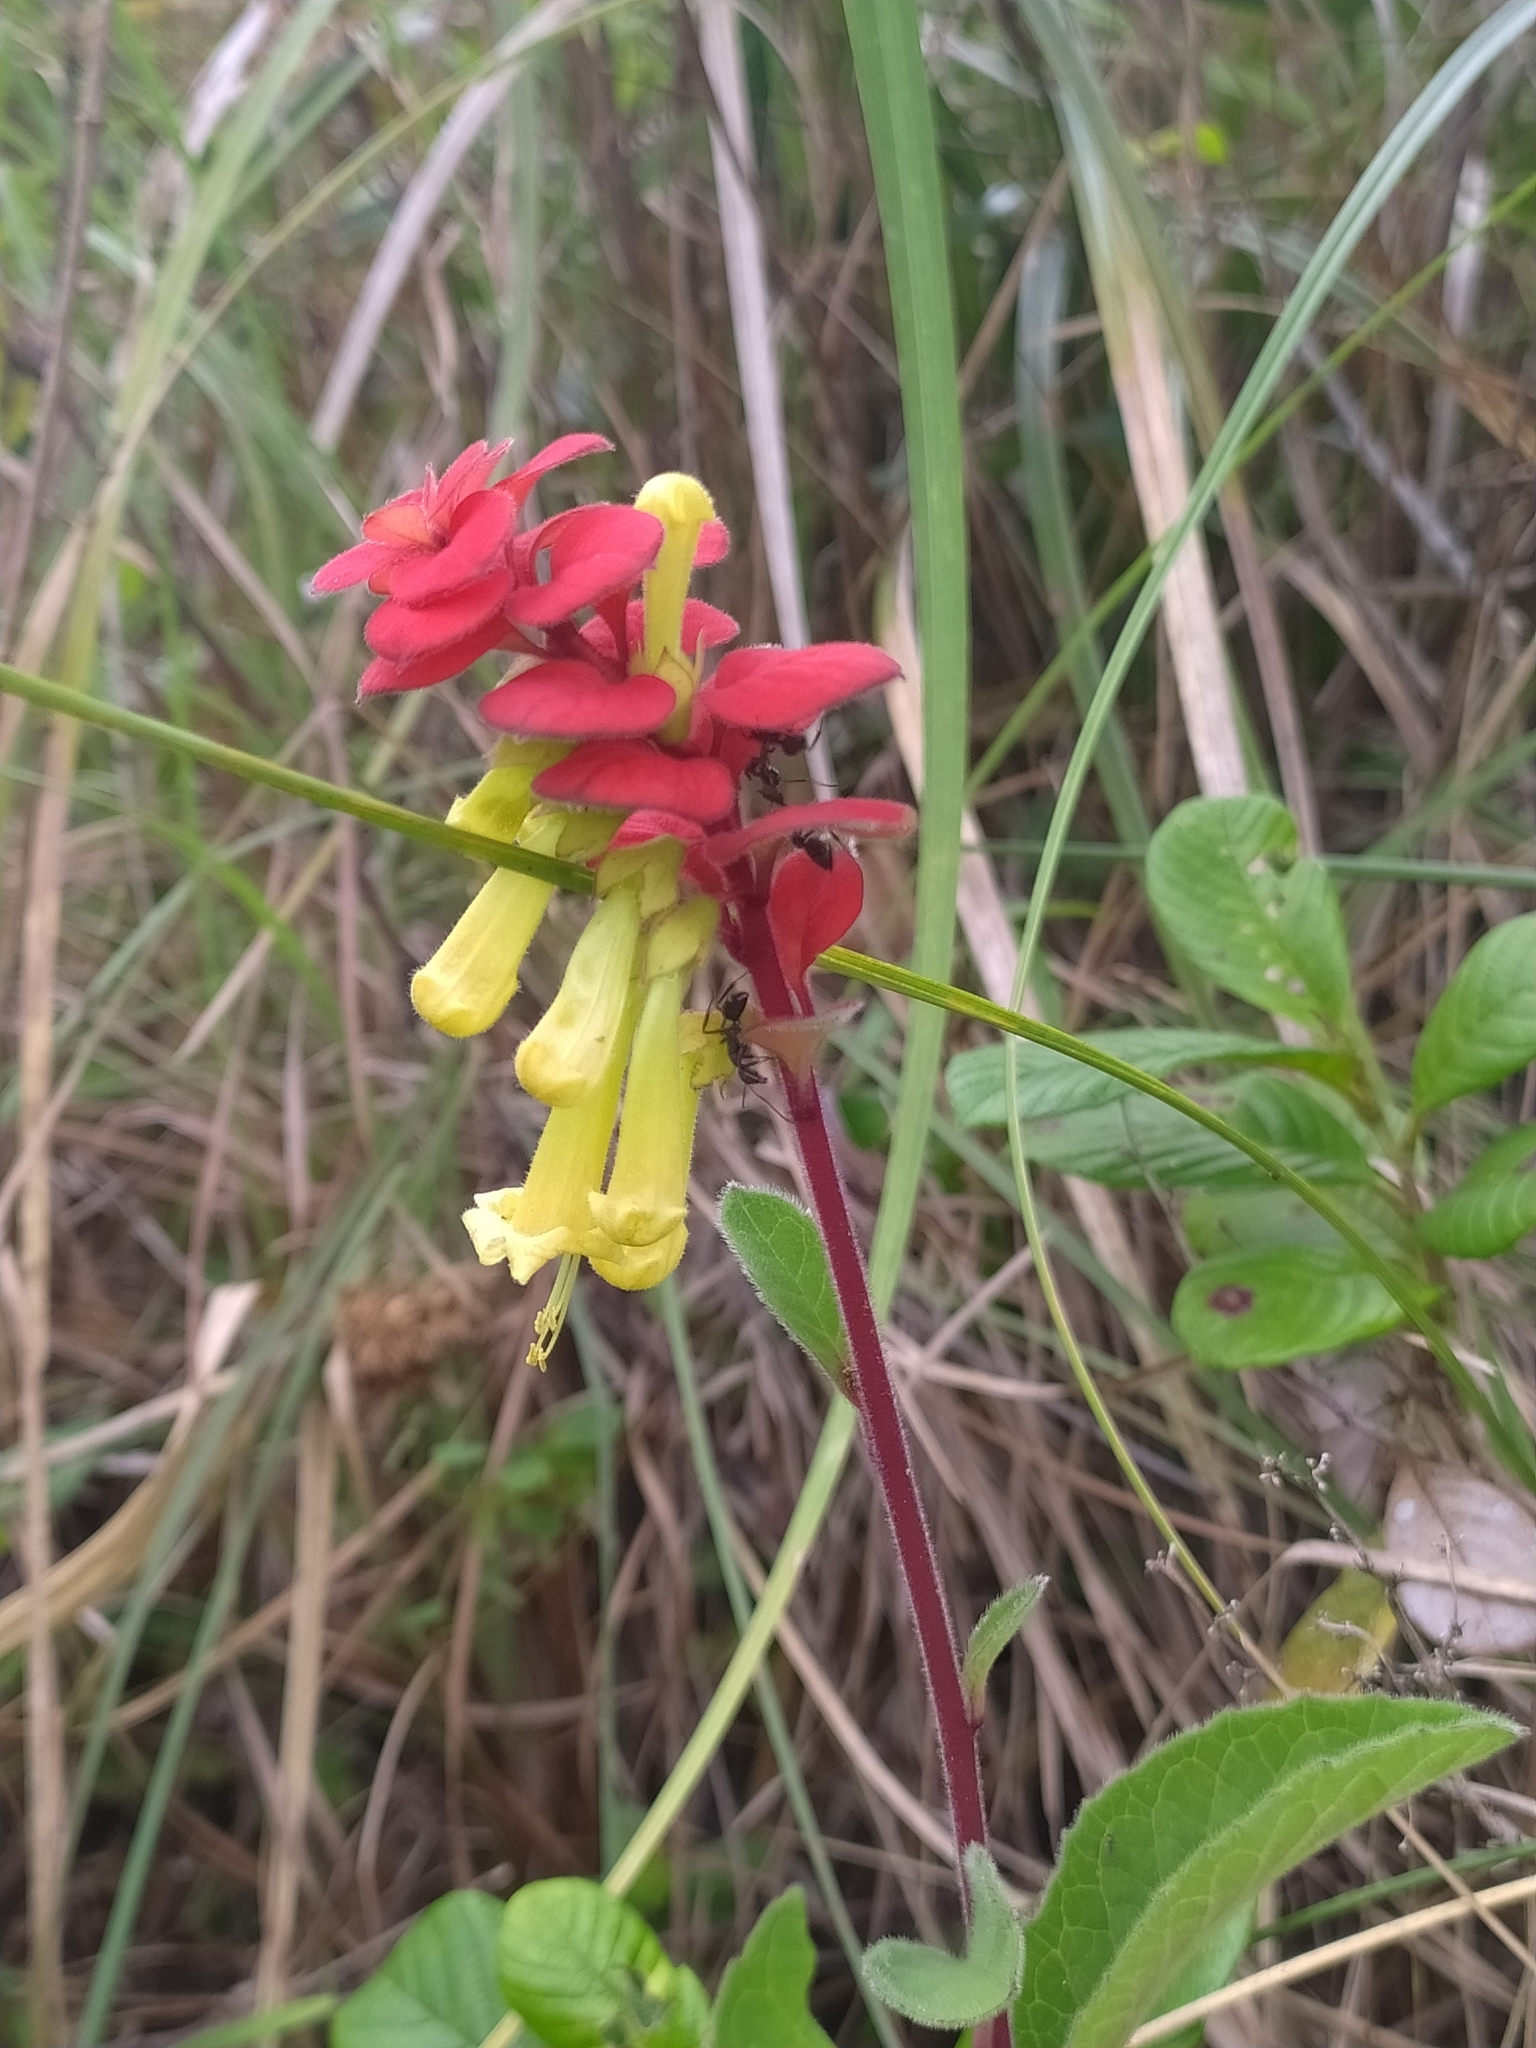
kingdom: Plantae
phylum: Tracheophyta
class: Magnoliopsida
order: Lamiales
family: Lamiaceae
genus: Amasonia
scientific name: Amasonia campestris
